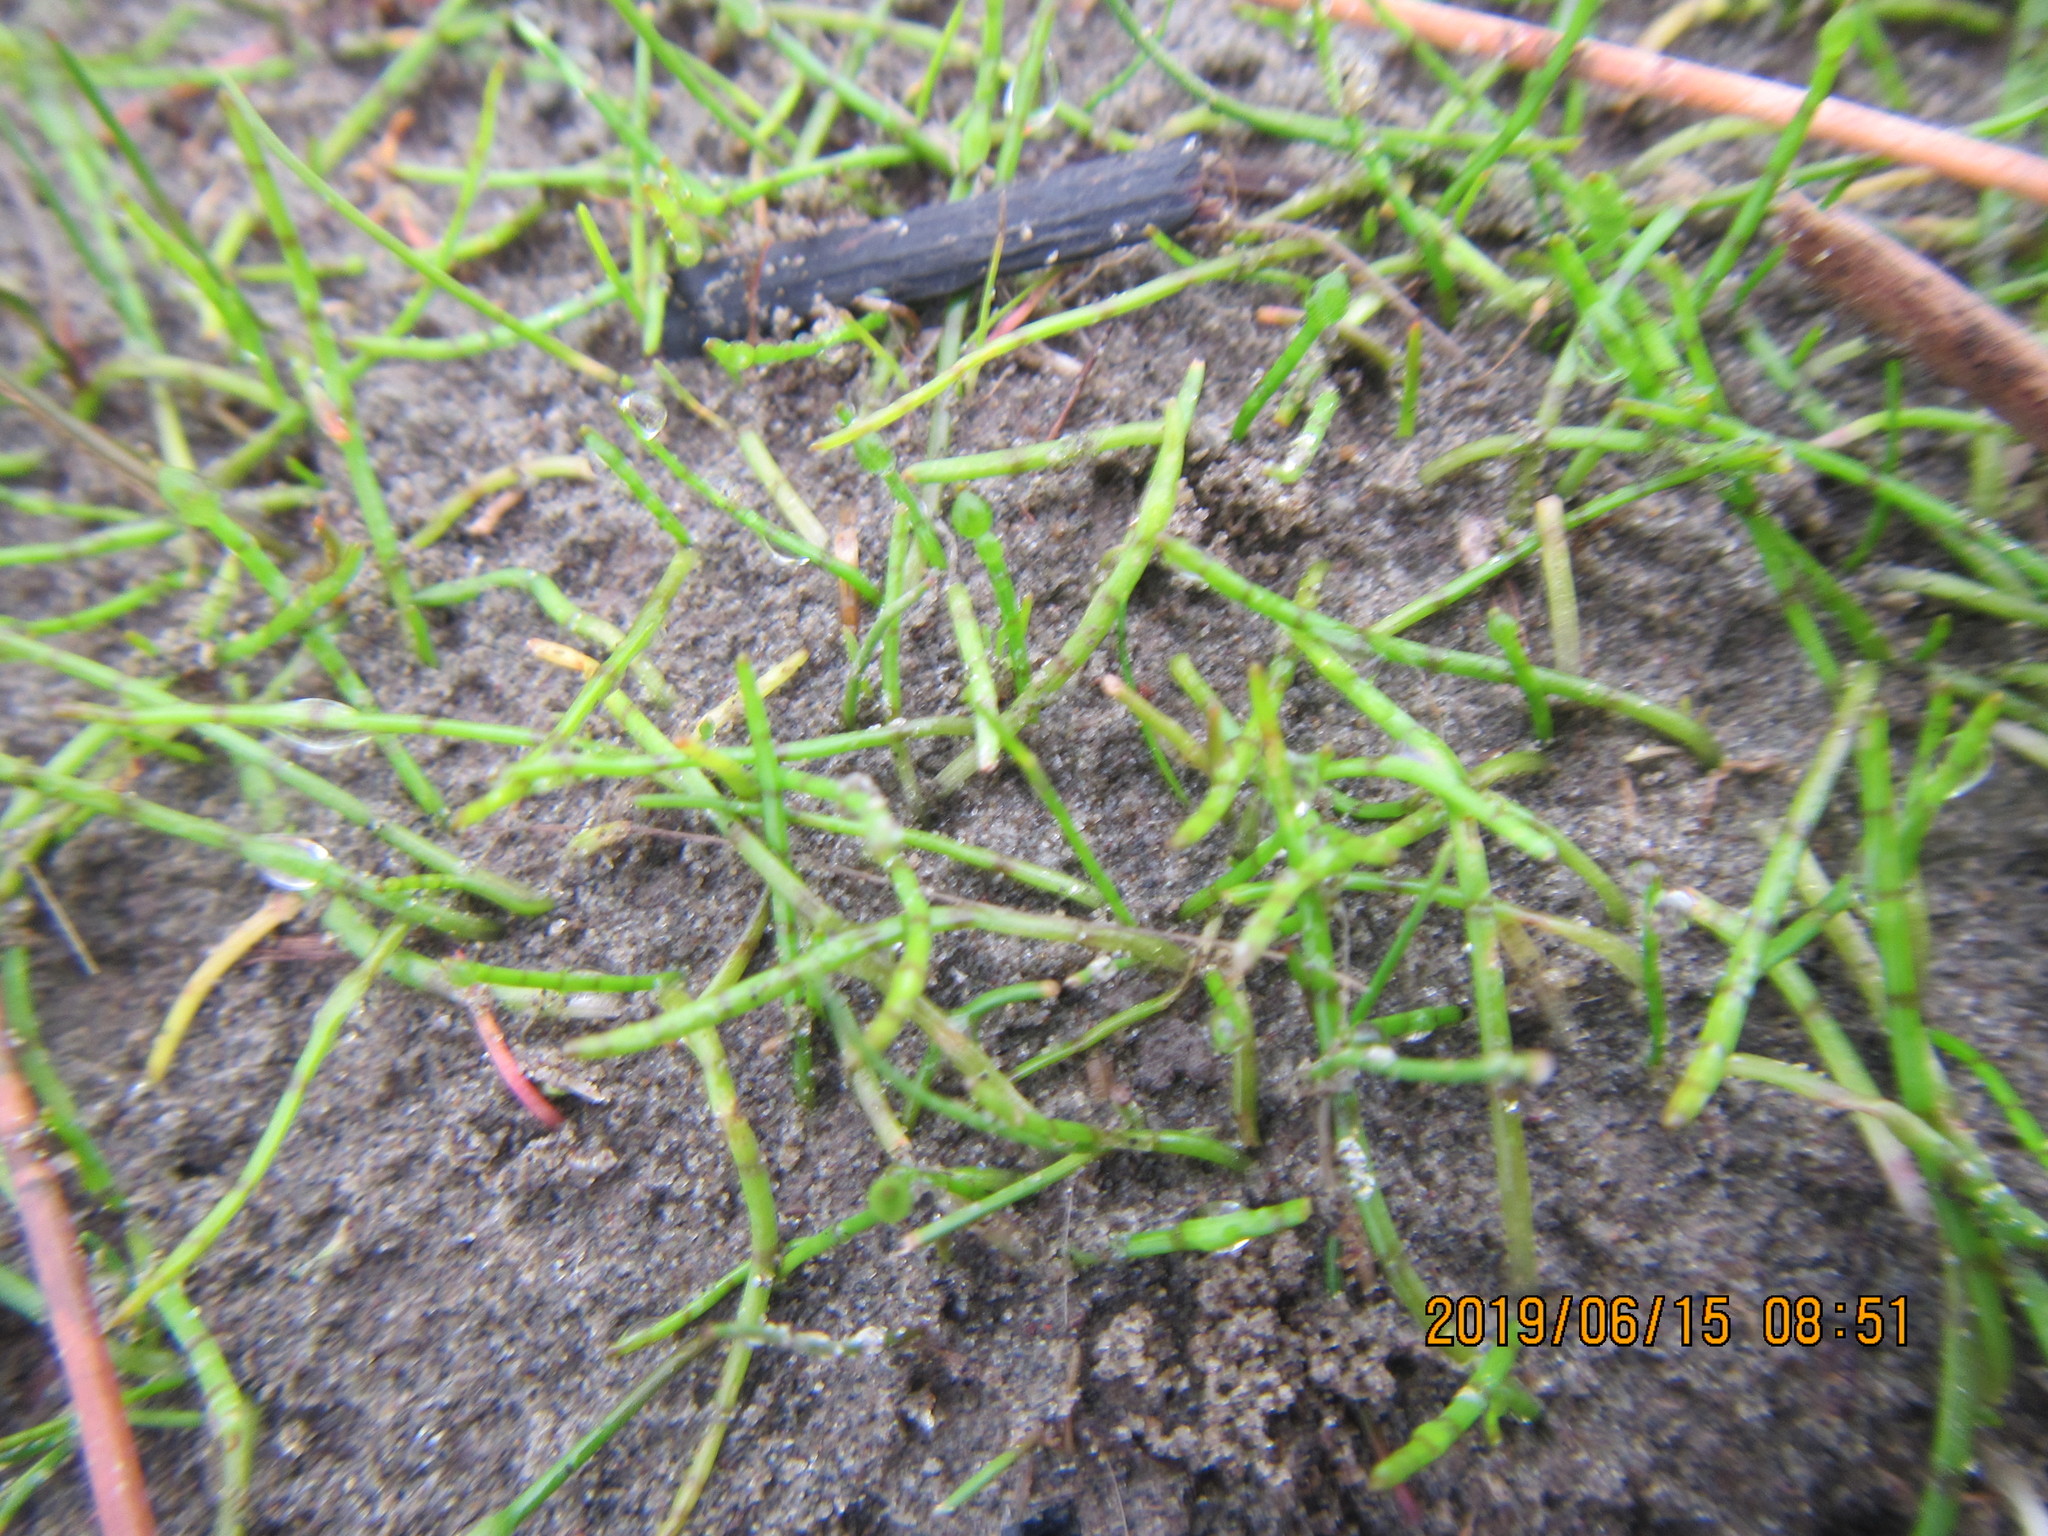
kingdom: Plantae
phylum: Tracheophyta
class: Magnoliopsida
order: Apiales
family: Apiaceae
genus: Lilaeopsis
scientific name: Lilaeopsis novae-zelandiae
